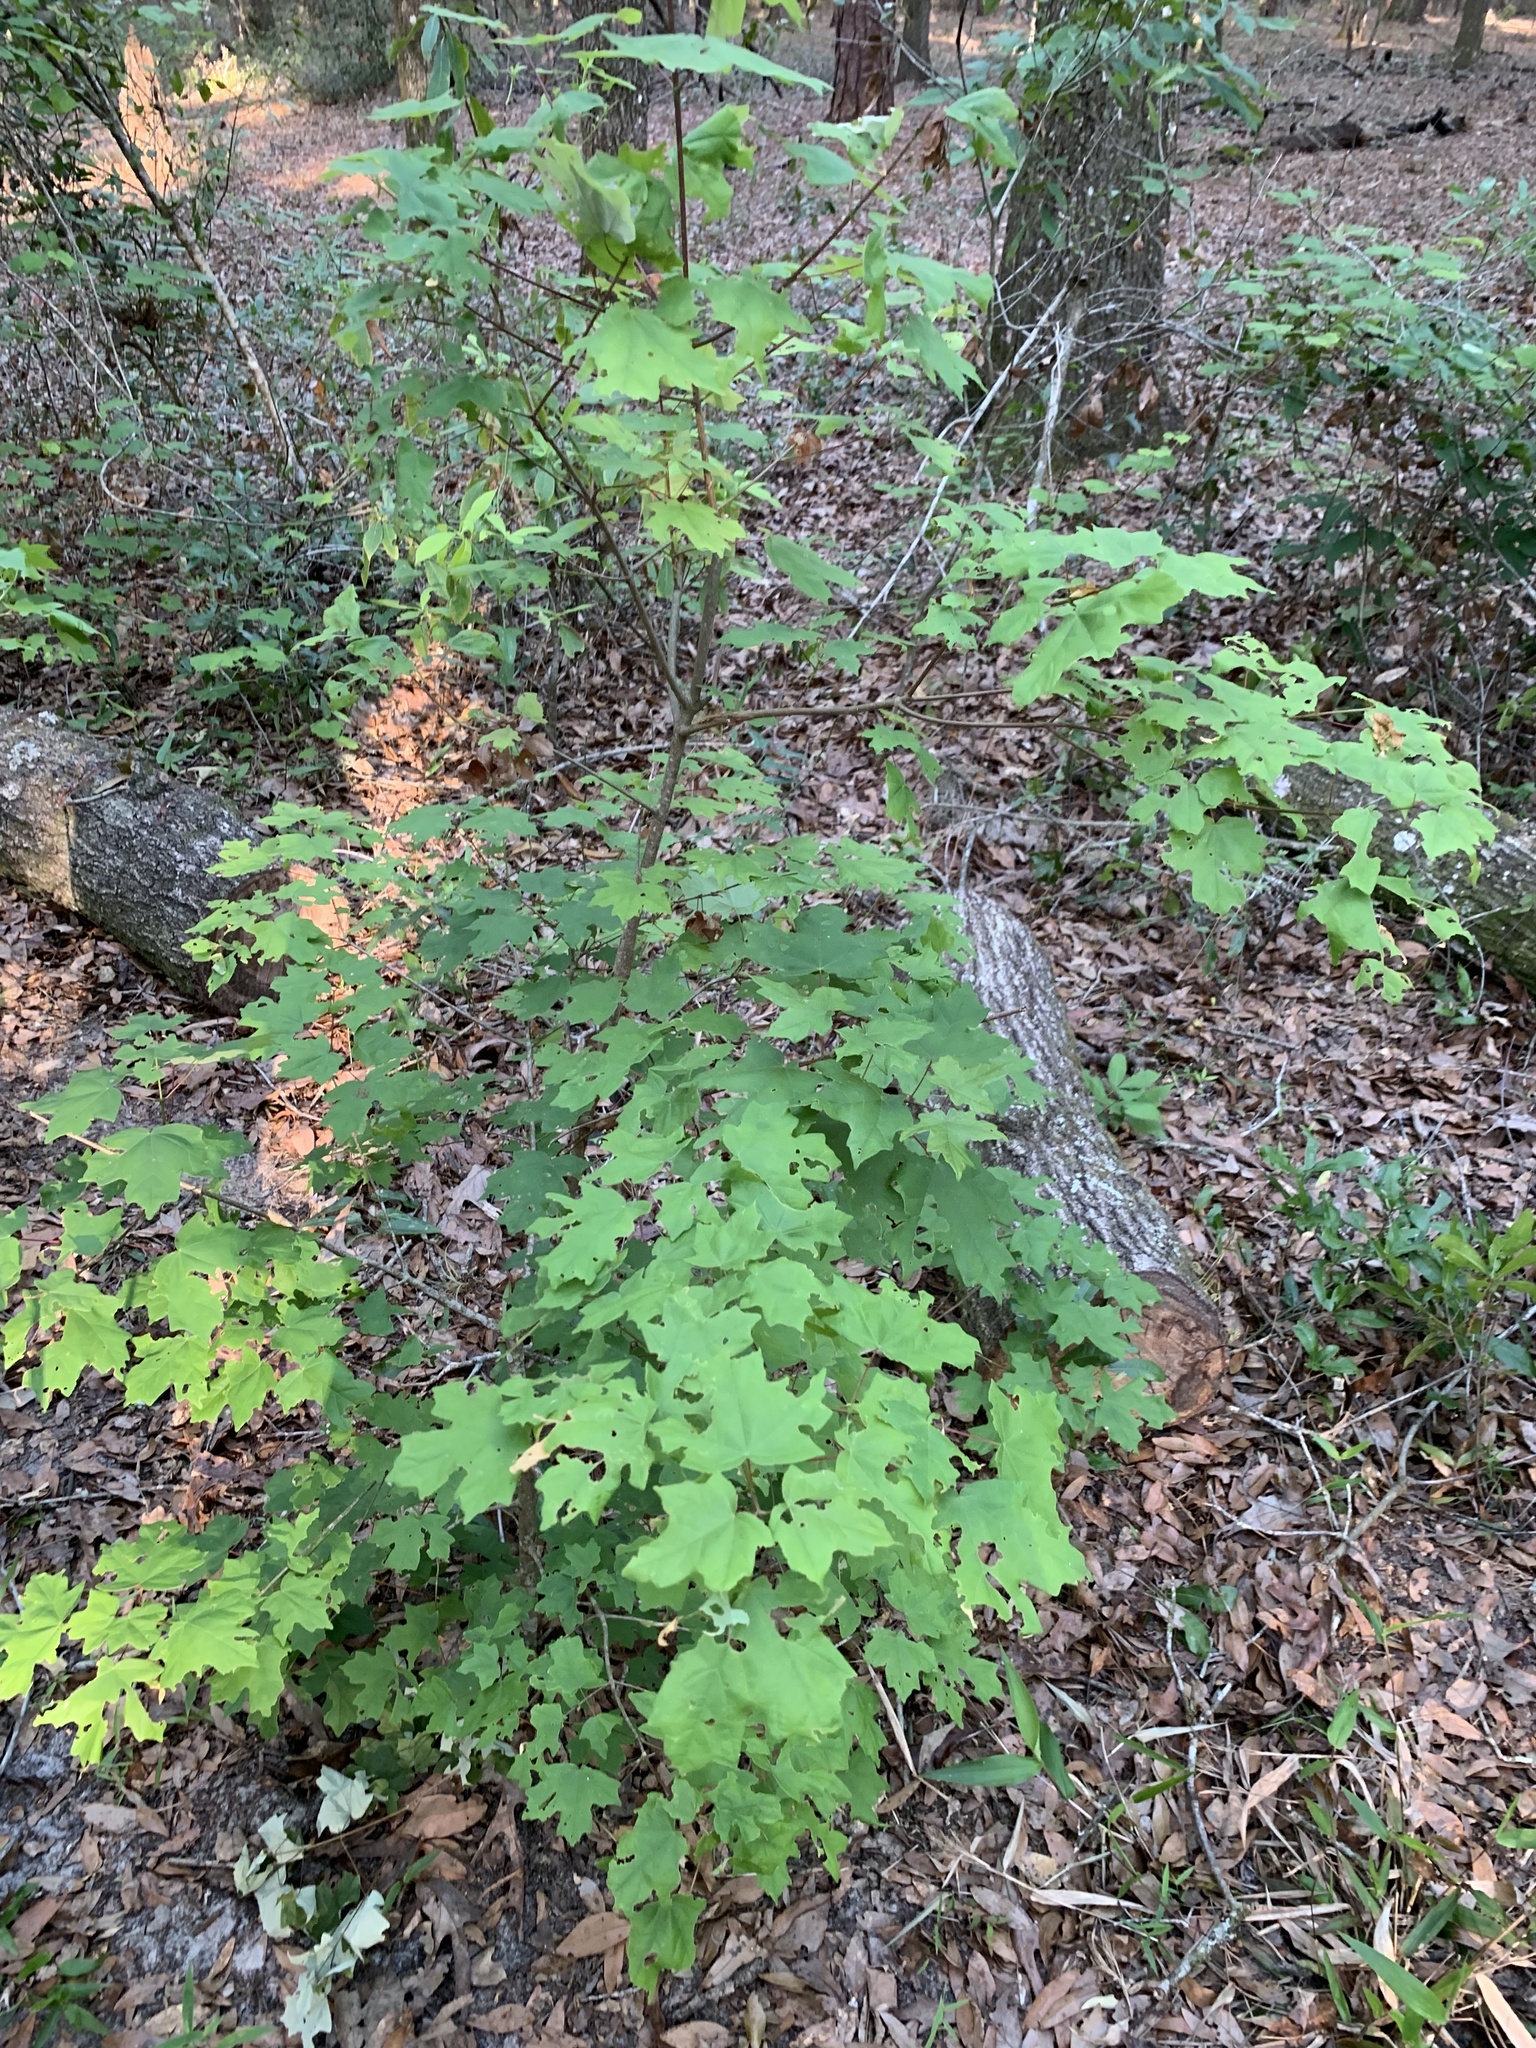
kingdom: Plantae
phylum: Tracheophyta
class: Magnoliopsida
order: Sapindales
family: Sapindaceae
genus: Acer
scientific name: Acer floridanum
